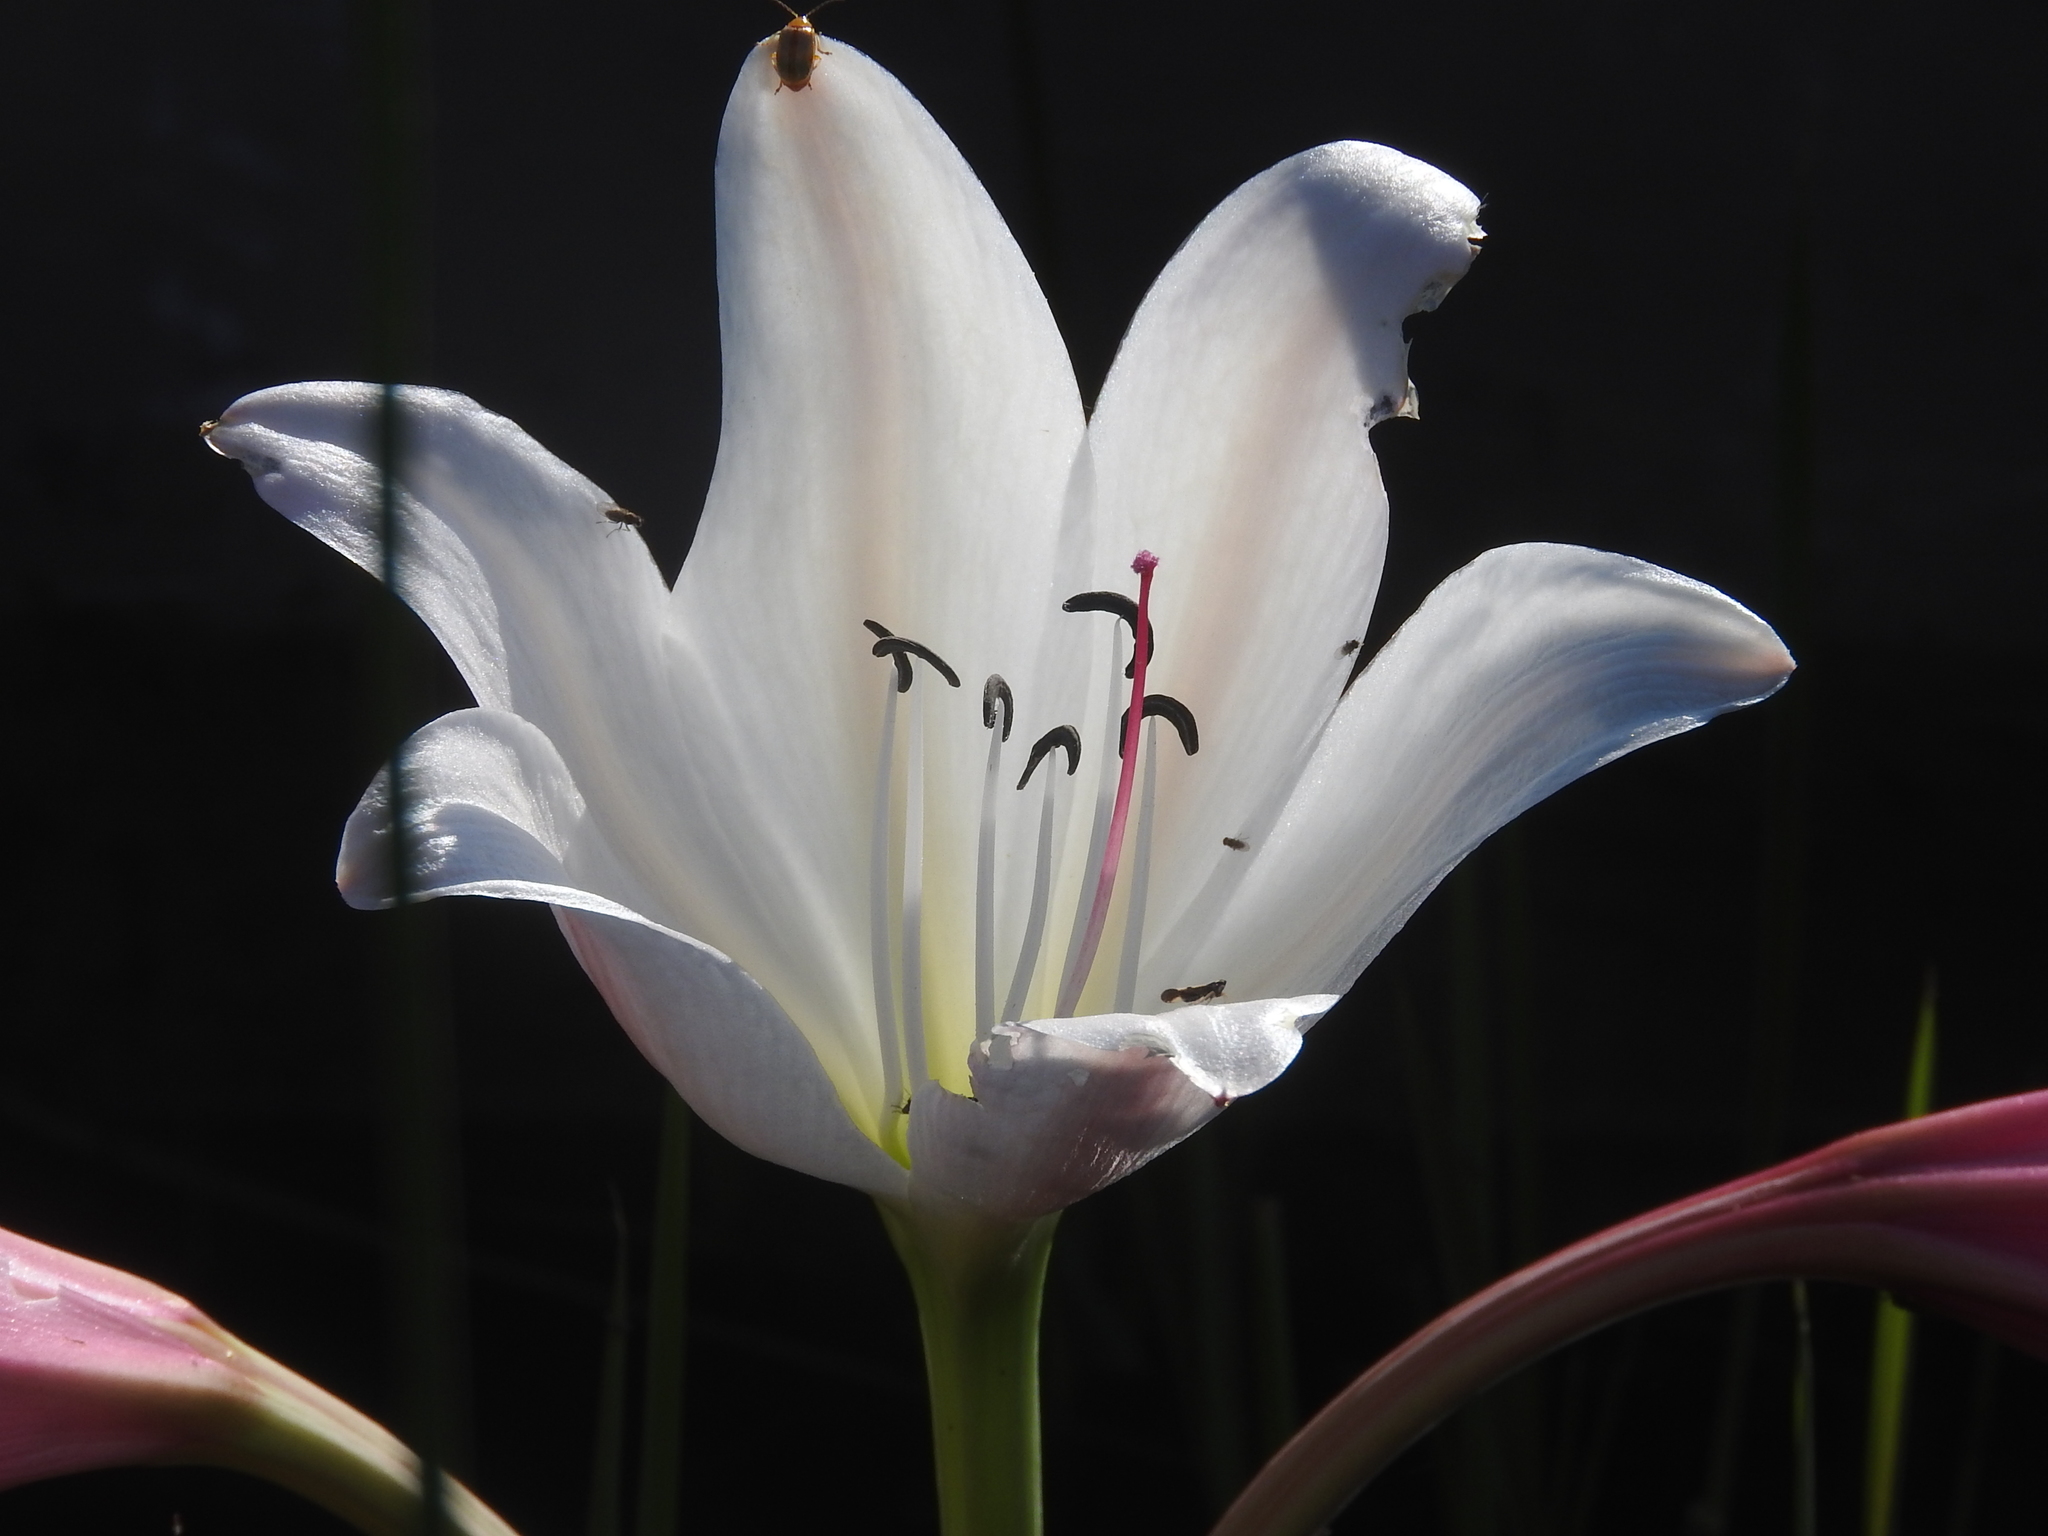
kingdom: Plantae
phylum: Tracheophyta
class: Liliopsida
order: Asparagales
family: Amaryllidaceae
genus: Crinum
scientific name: Crinum paludosum
